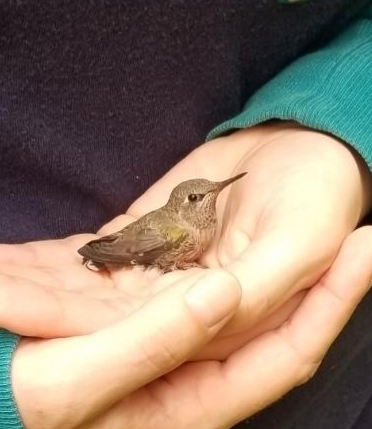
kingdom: Animalia
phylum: Chordata
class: Aves
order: Apodiformes
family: Trochilidae
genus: Calypte
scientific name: Calypte anna
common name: Anna's hummingbird
